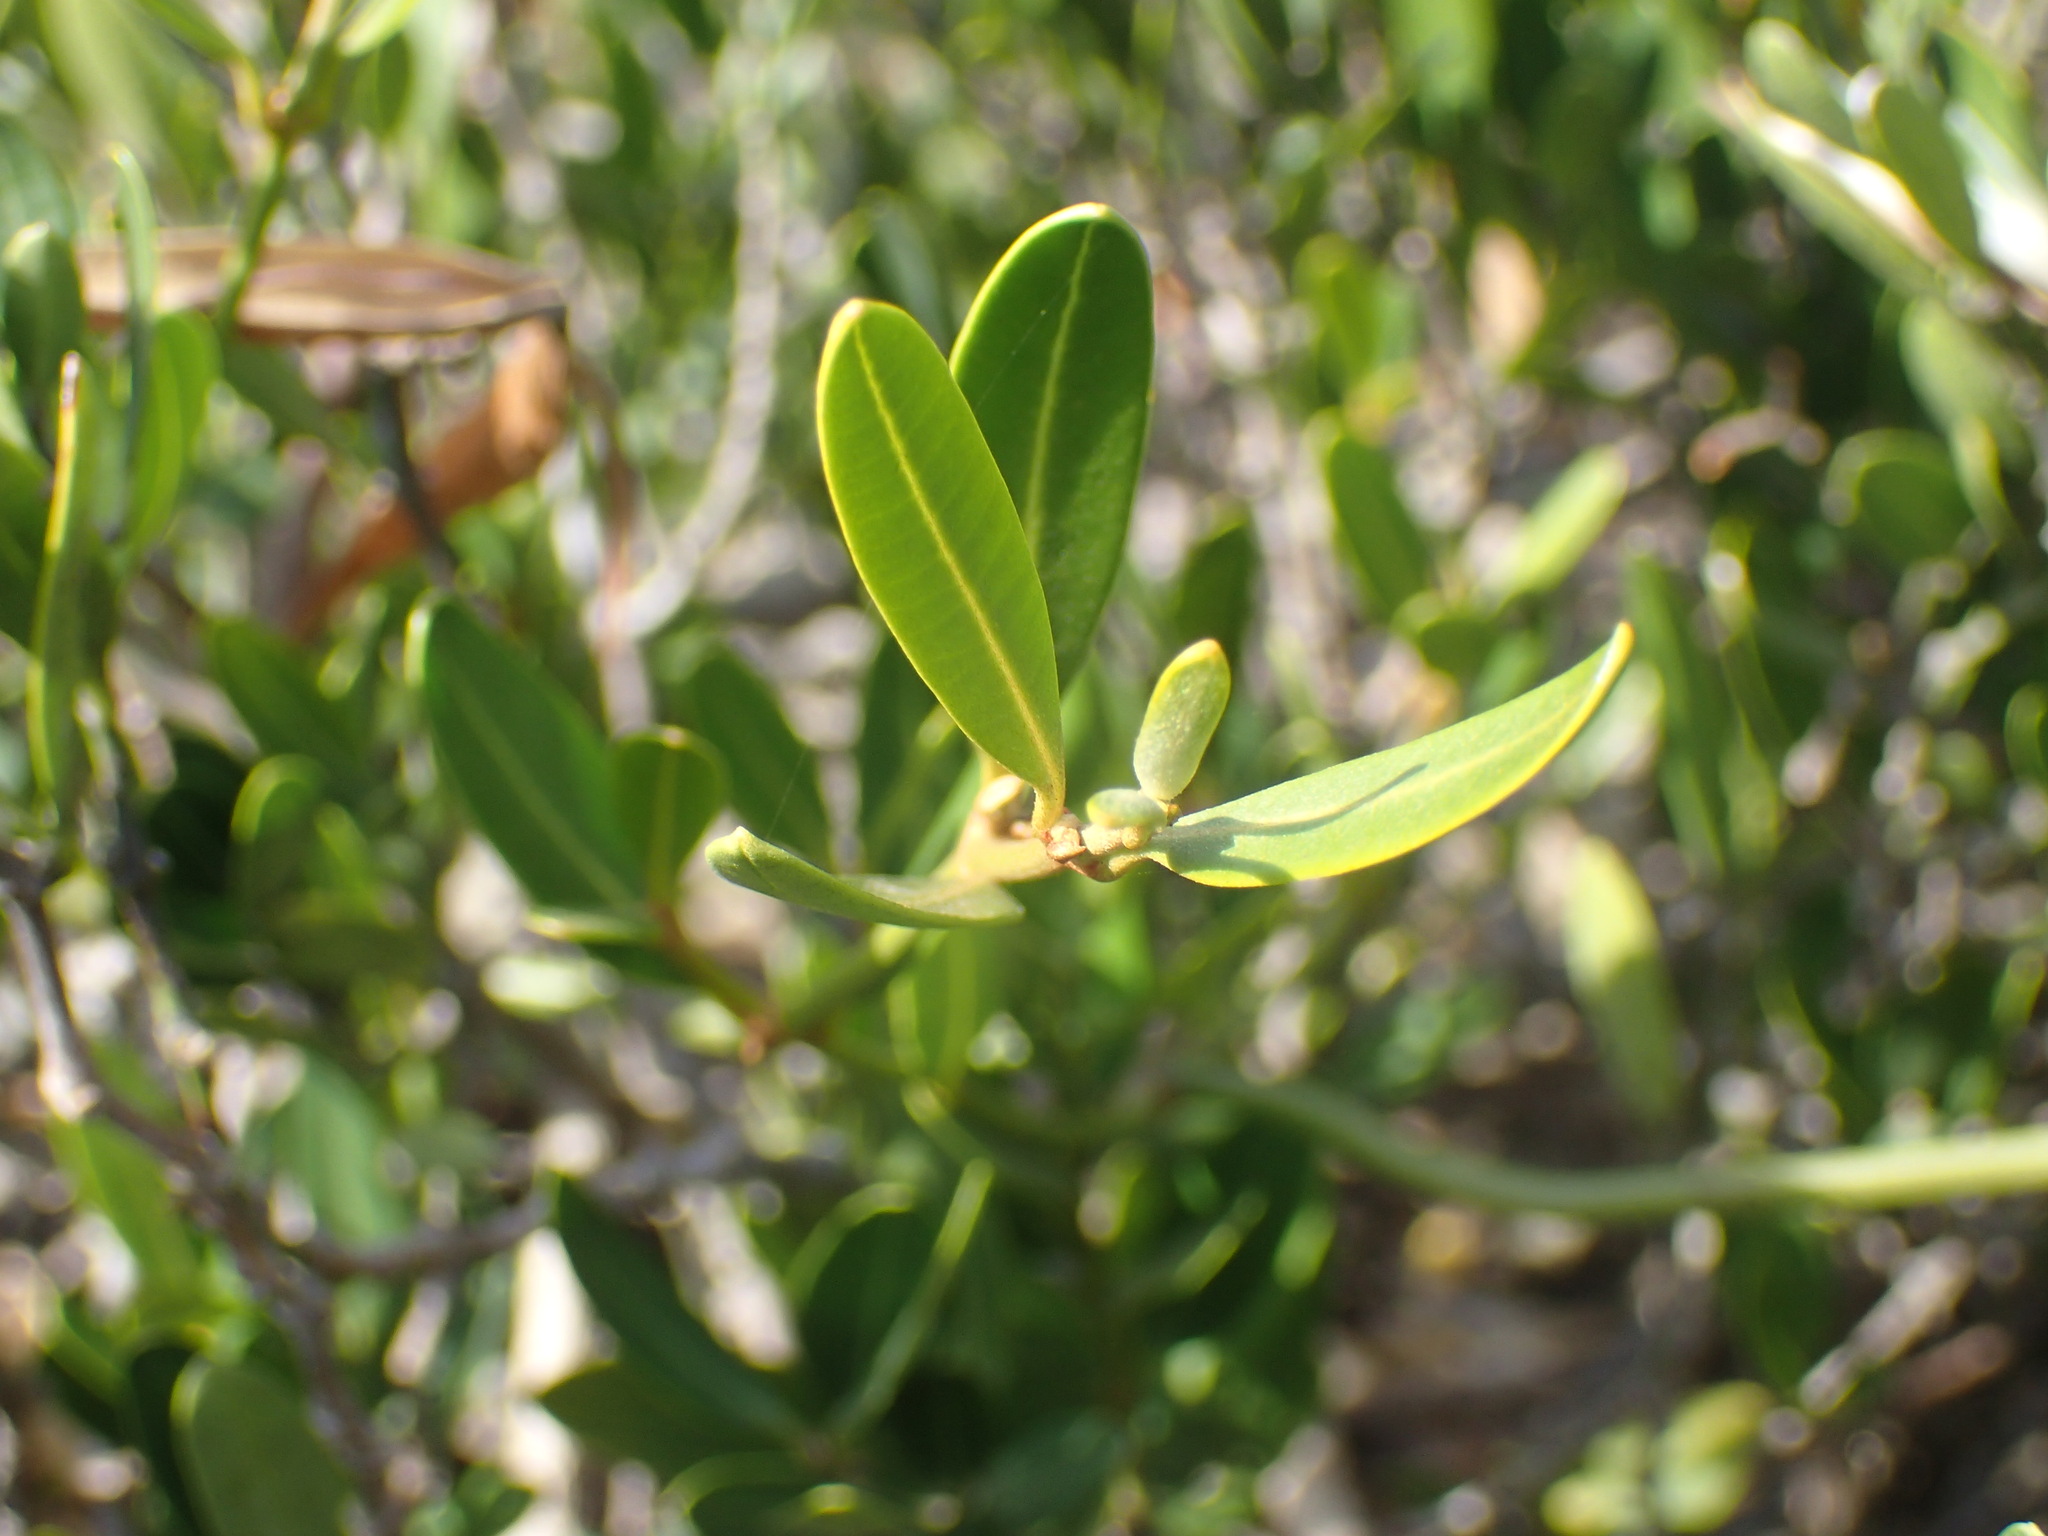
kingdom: Plantae
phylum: Tracheophyta
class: Magnoliopsida
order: Gentianales
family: Apocynaceae
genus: Secamone
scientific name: Secamone alpini
